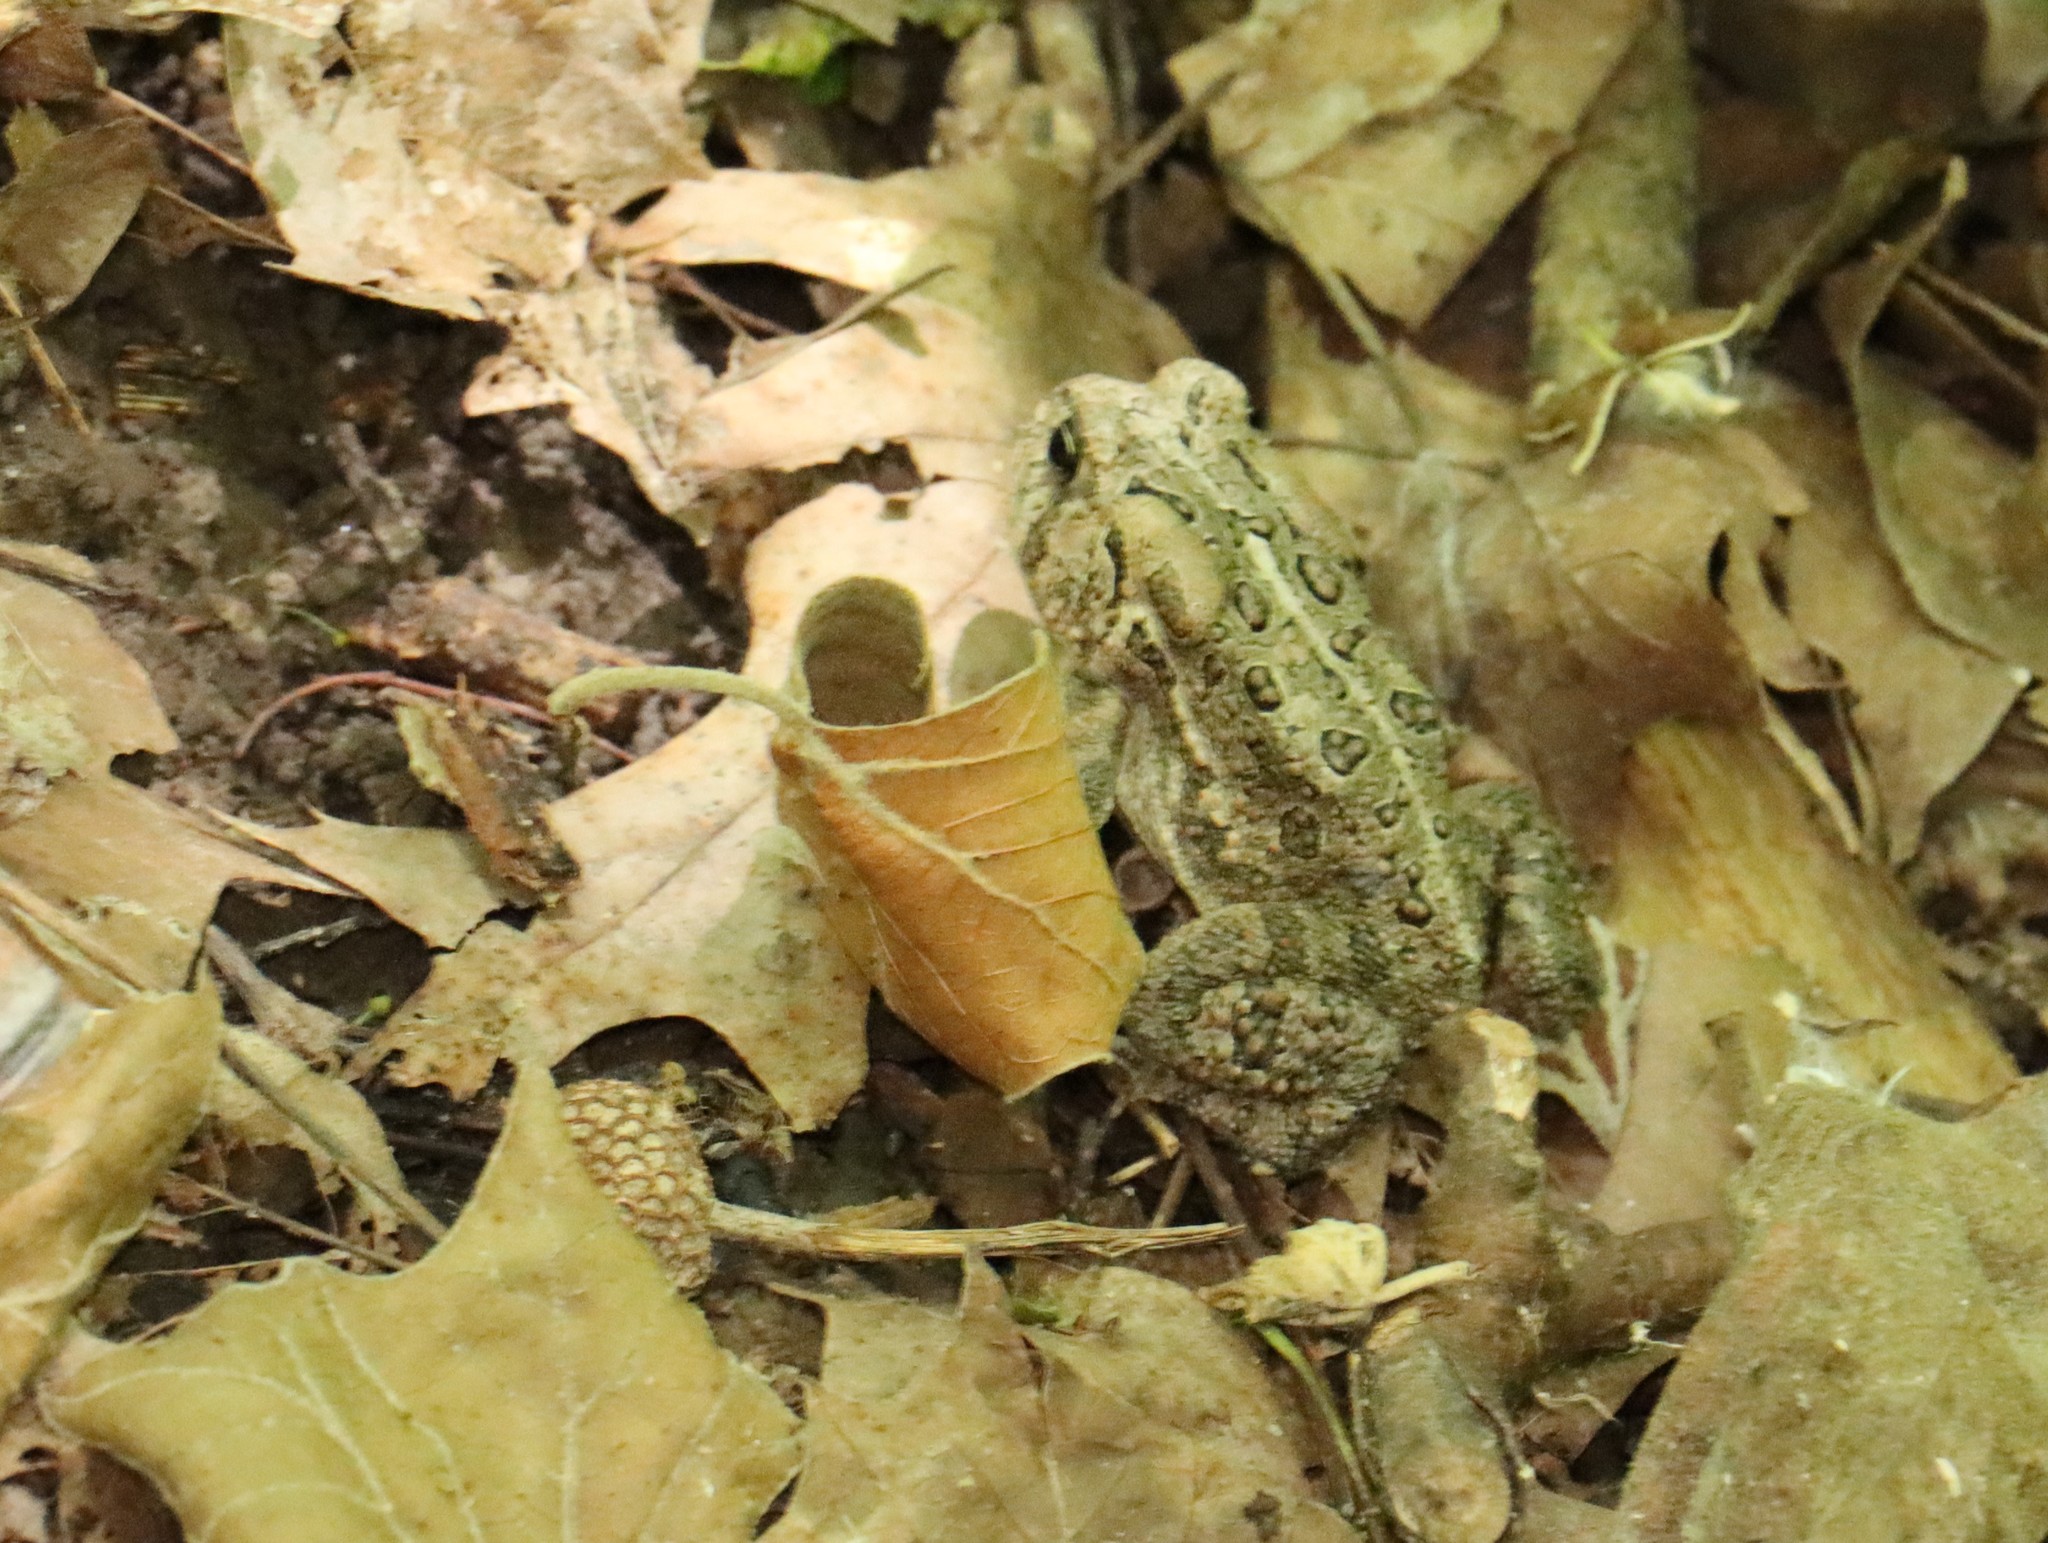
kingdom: Animalia
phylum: Chordata
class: Amphibia
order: Anura
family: Bufonidae
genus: Anaxyrus
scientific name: Anaxyrus fowleri
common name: Fowler's toad
